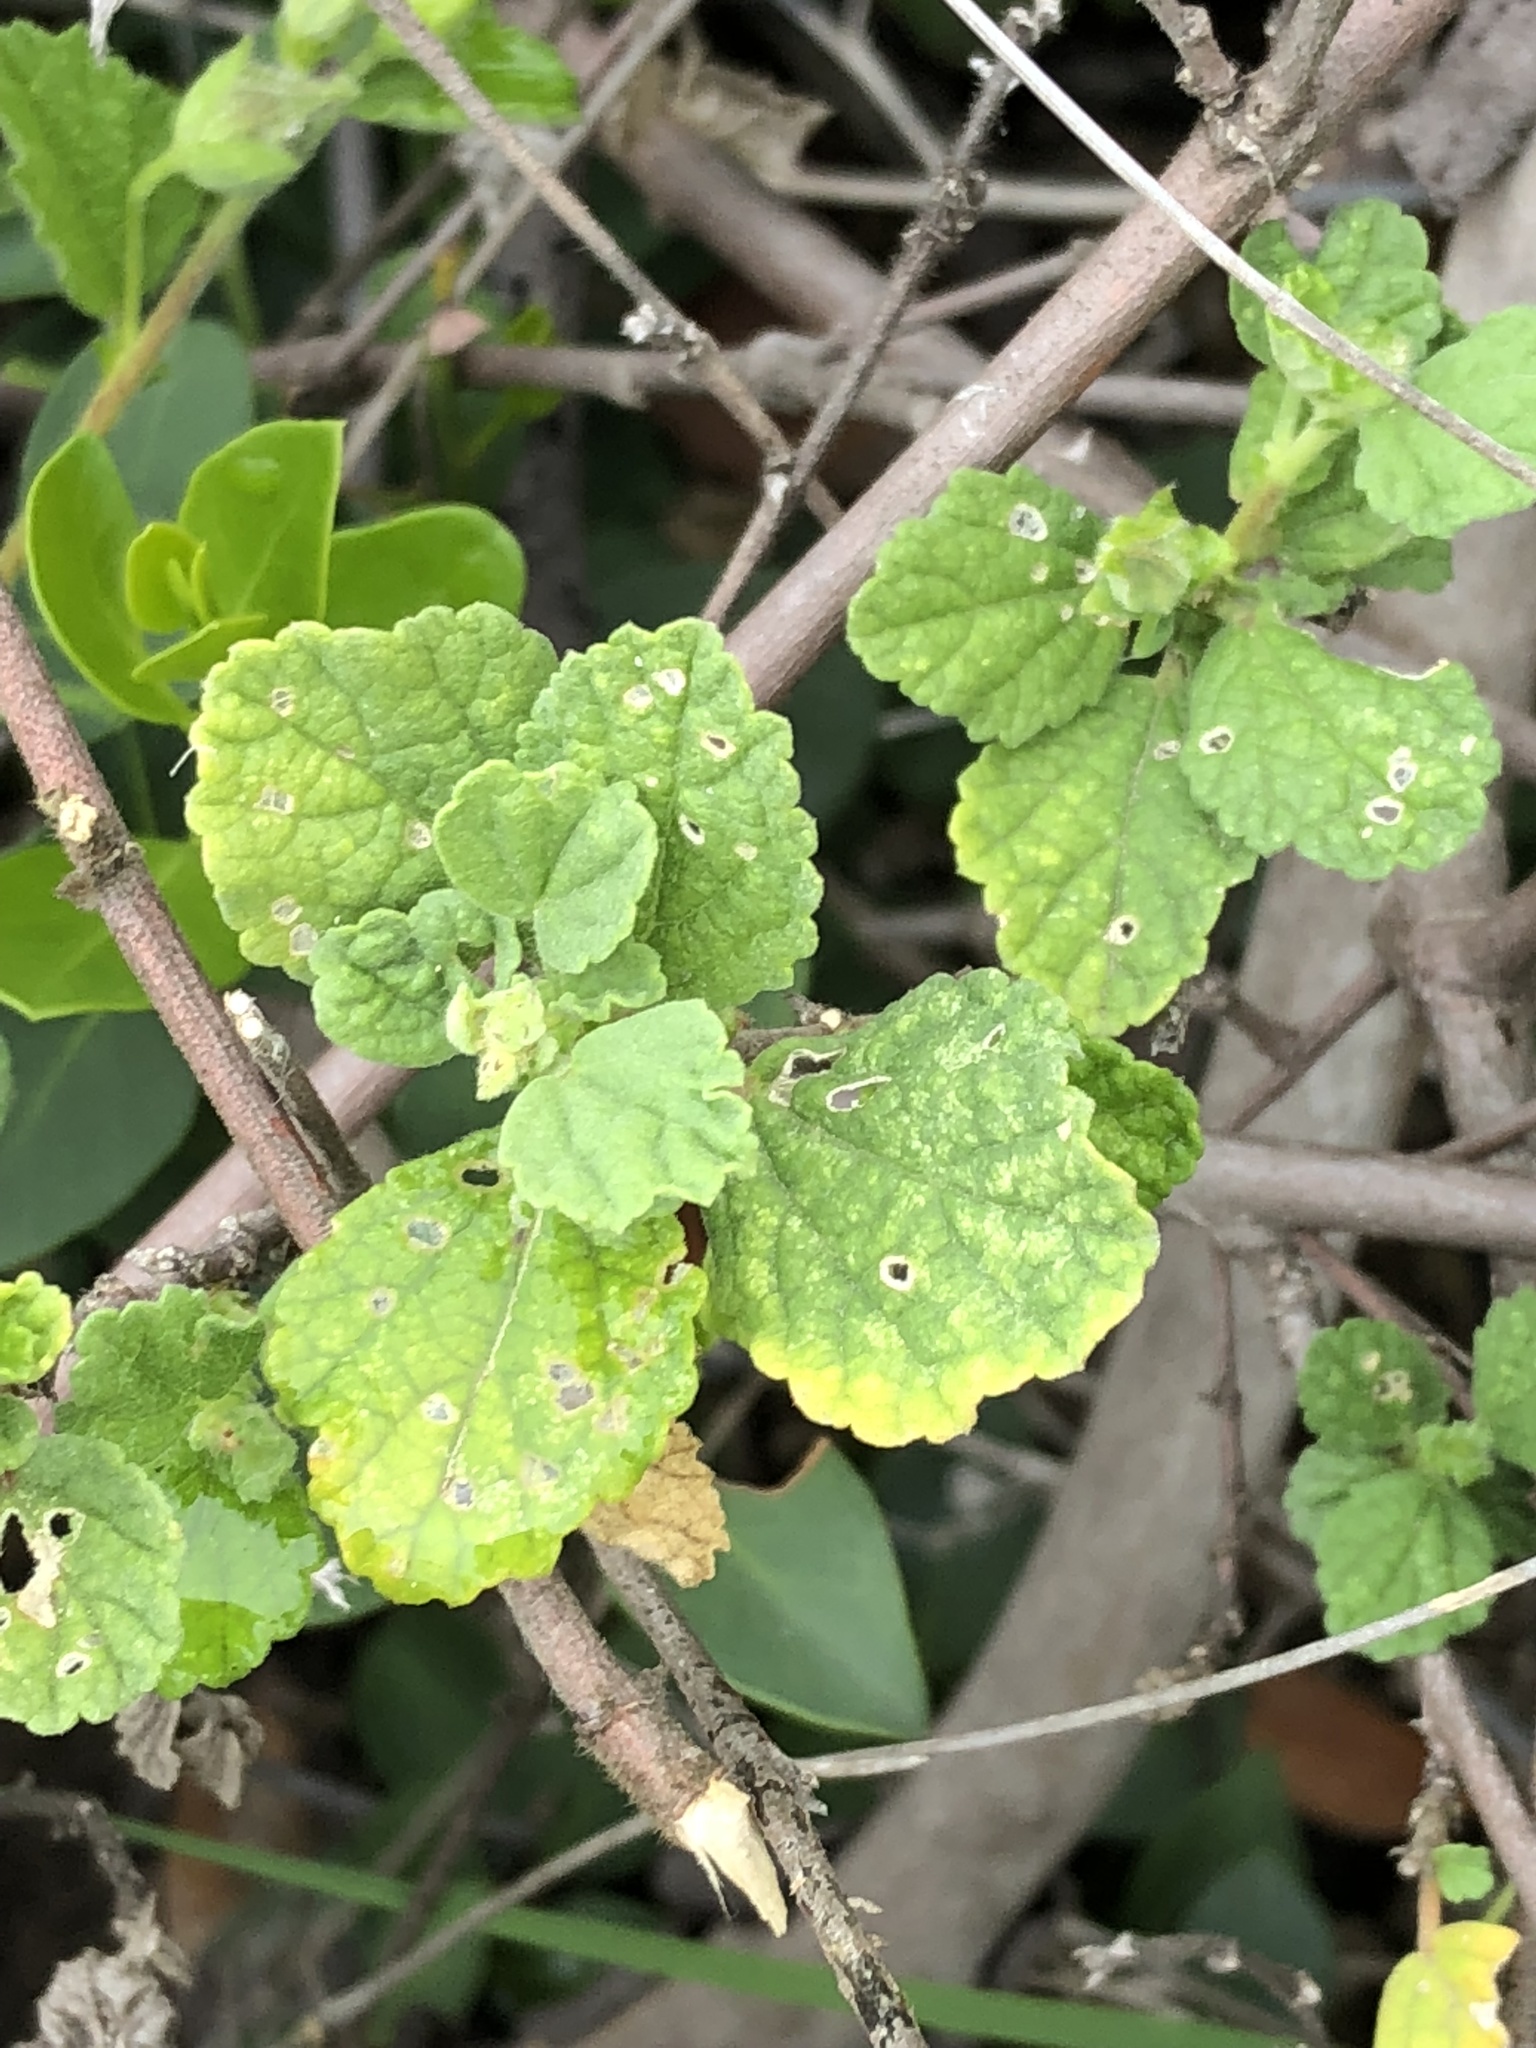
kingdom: Plantae
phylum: Tracheophyta
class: Magnoliopsida
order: Malvales
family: Malvaceae
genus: Anisodontea
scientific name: Anisodontea scabrosa
